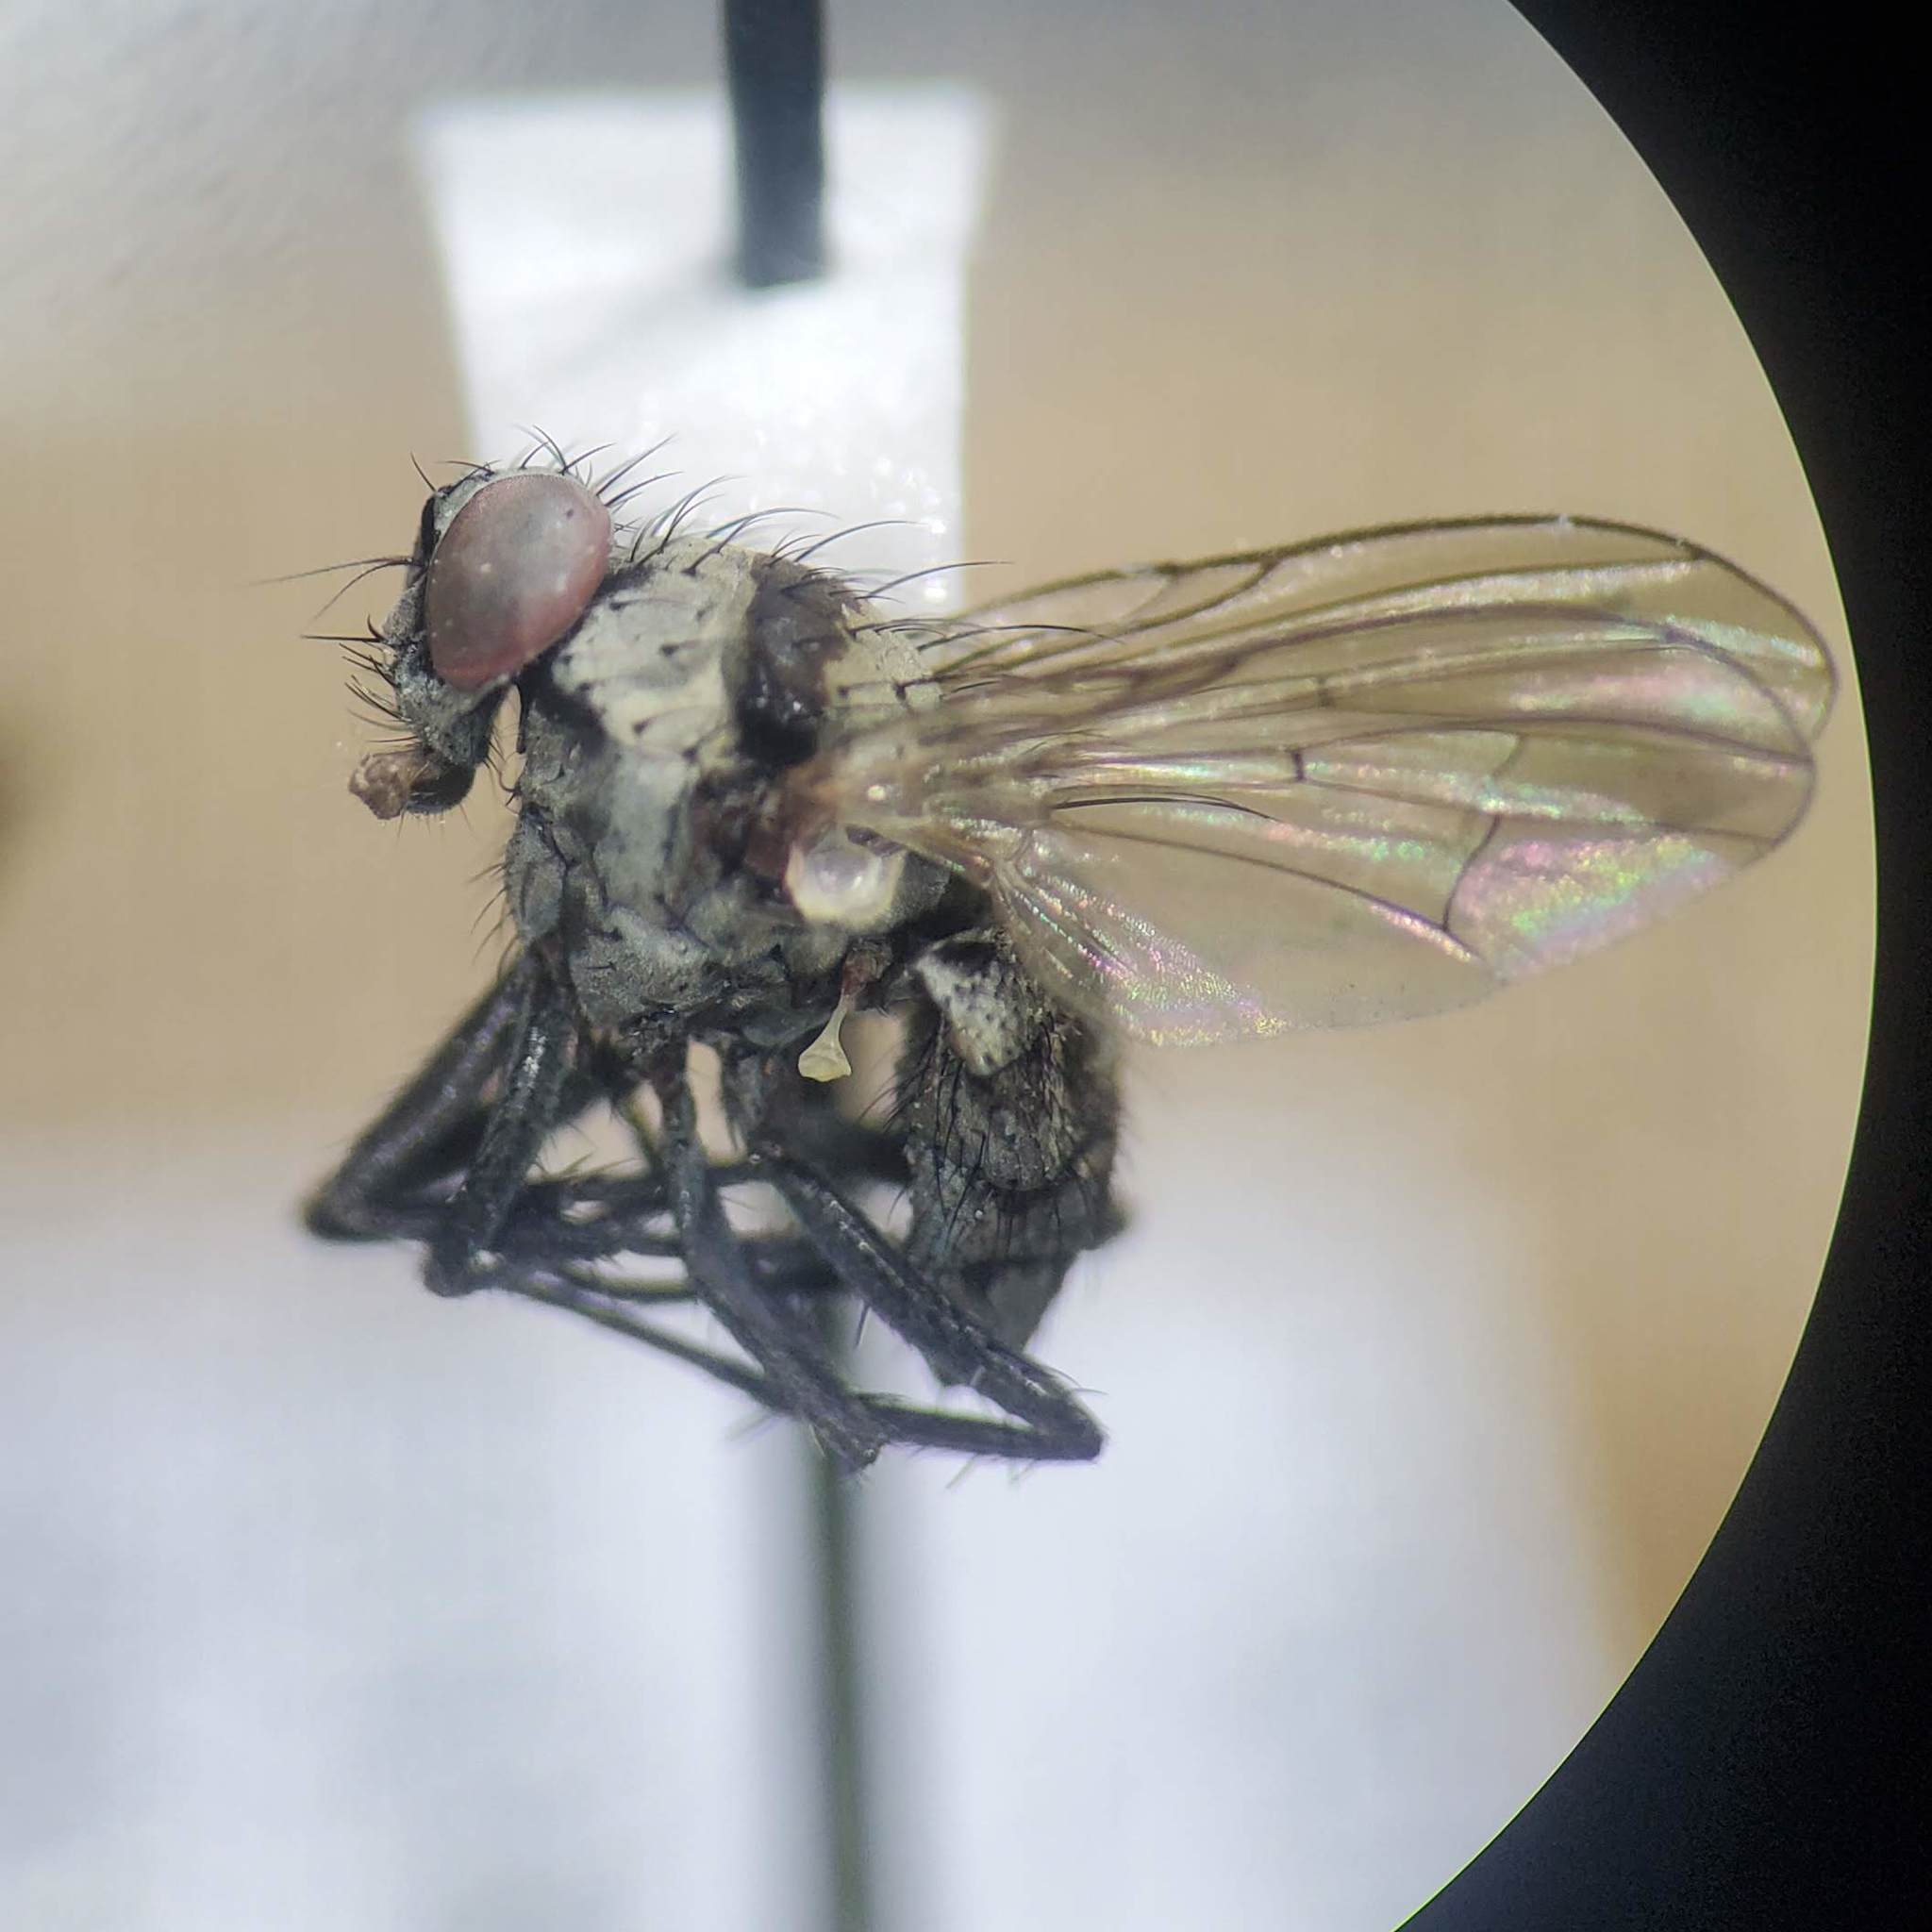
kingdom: Animalia
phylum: Arthropoda
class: Insecta
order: Diptera
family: Anthomyiidae
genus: Anthomyia
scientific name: Anthomyia illocata
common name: Fly
